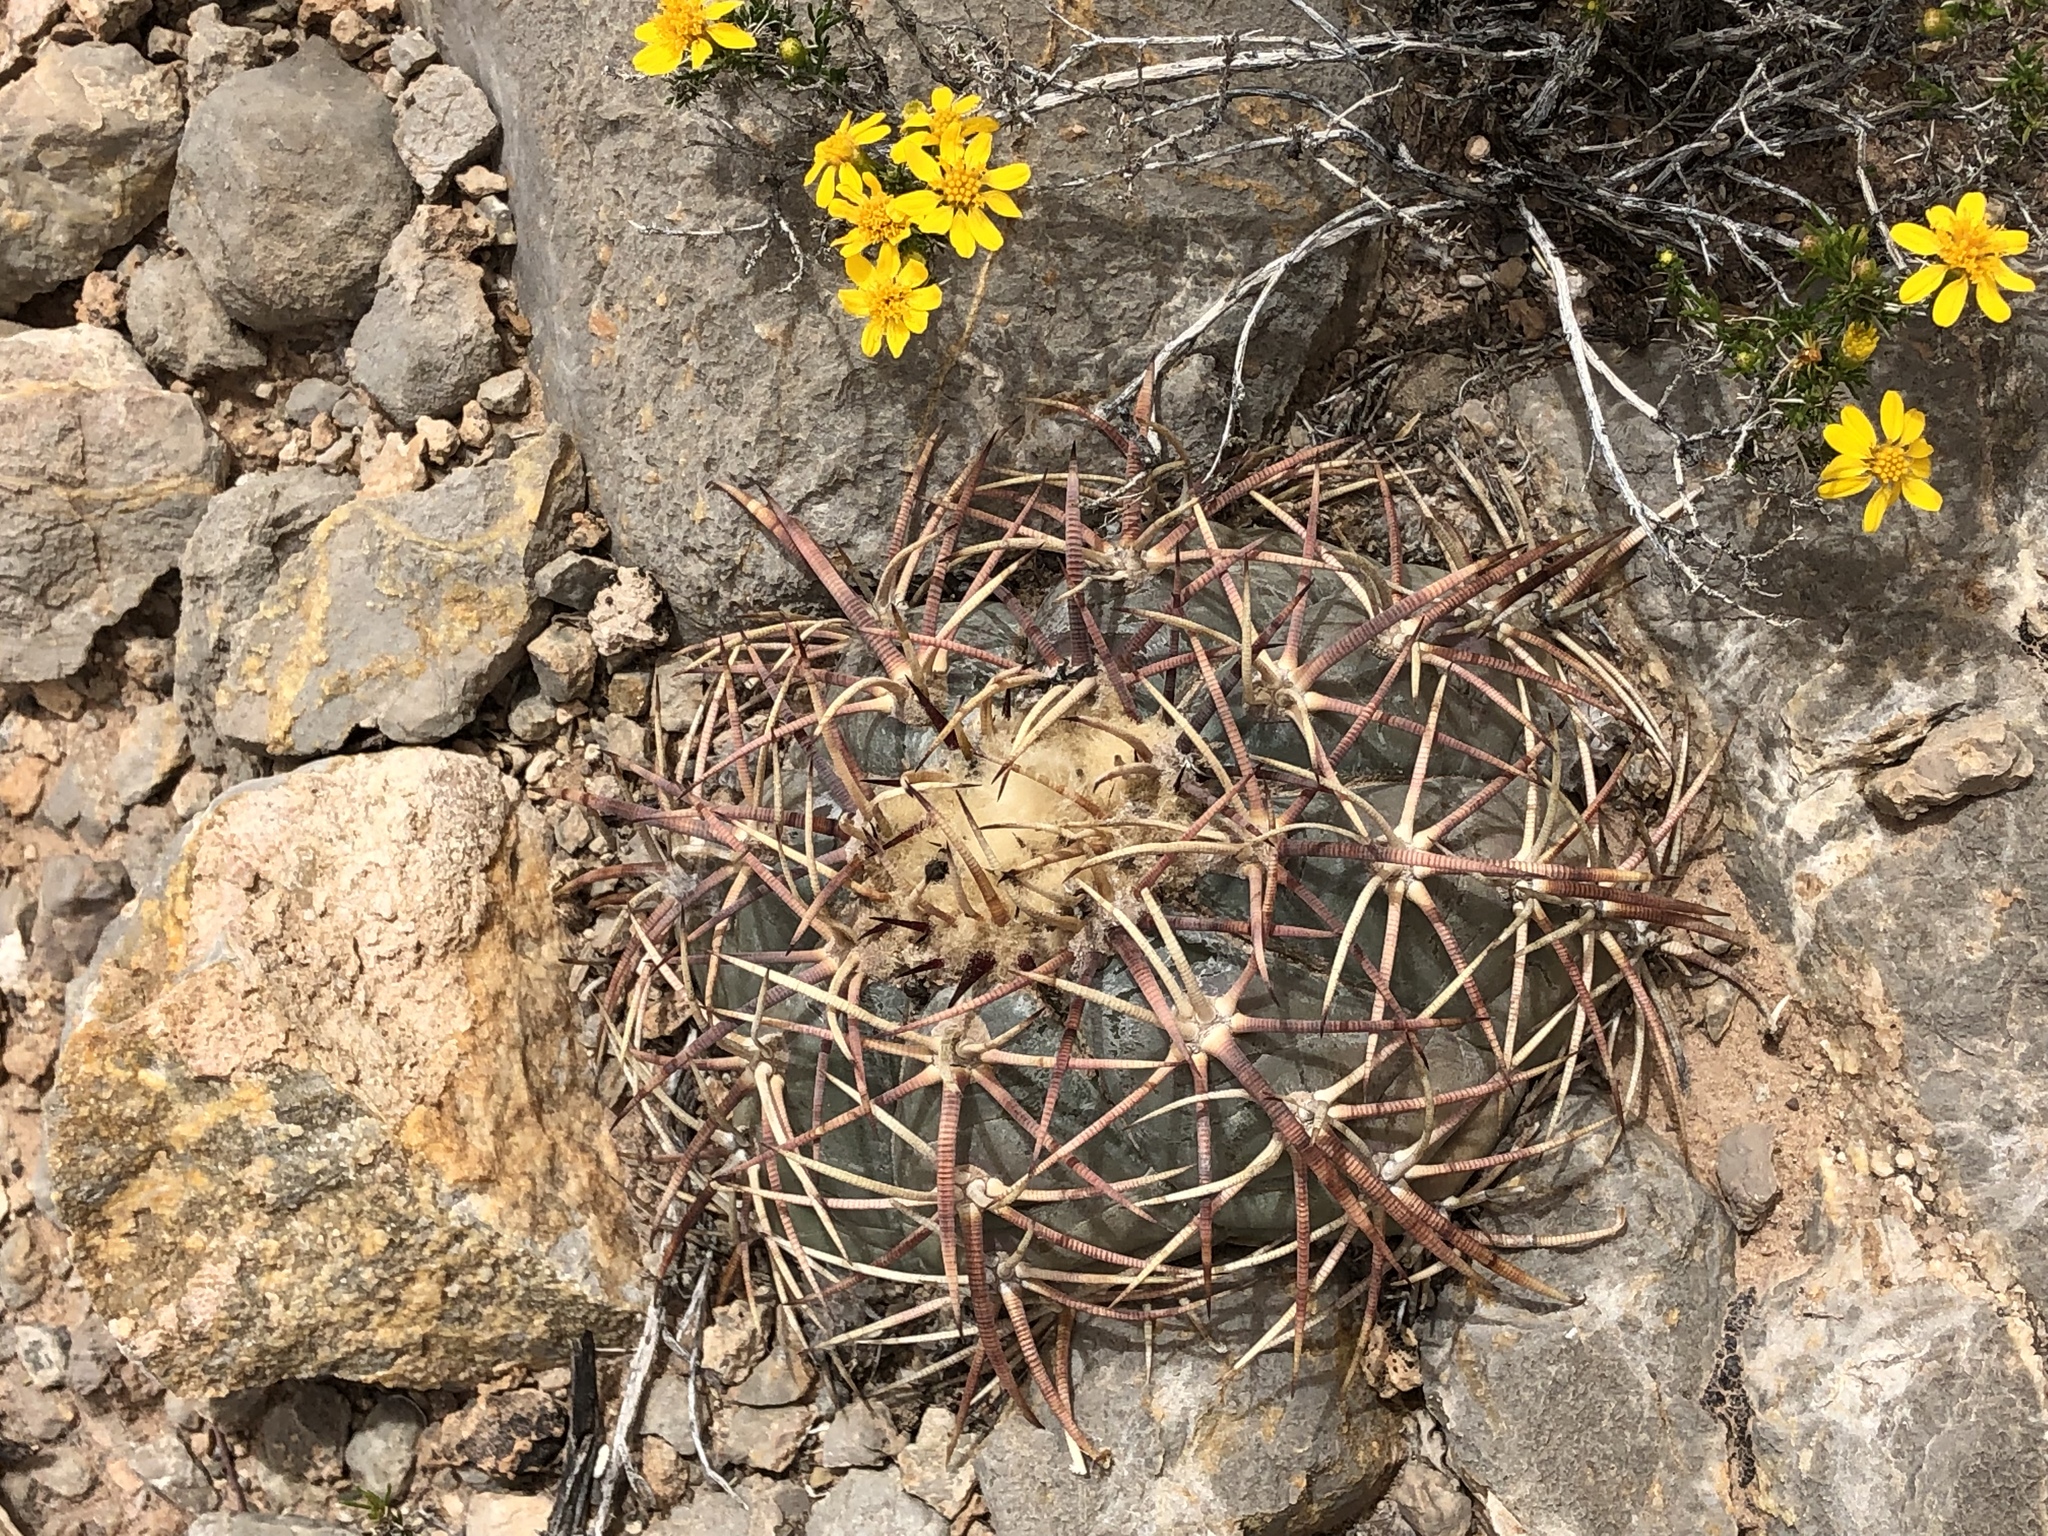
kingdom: Plantae
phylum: Tracheophyta
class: Magnoliopsida
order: Caryophyllales
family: Cactaceae
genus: Echinocactus
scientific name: Echinocactus horizonthalonius
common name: Devilshead
